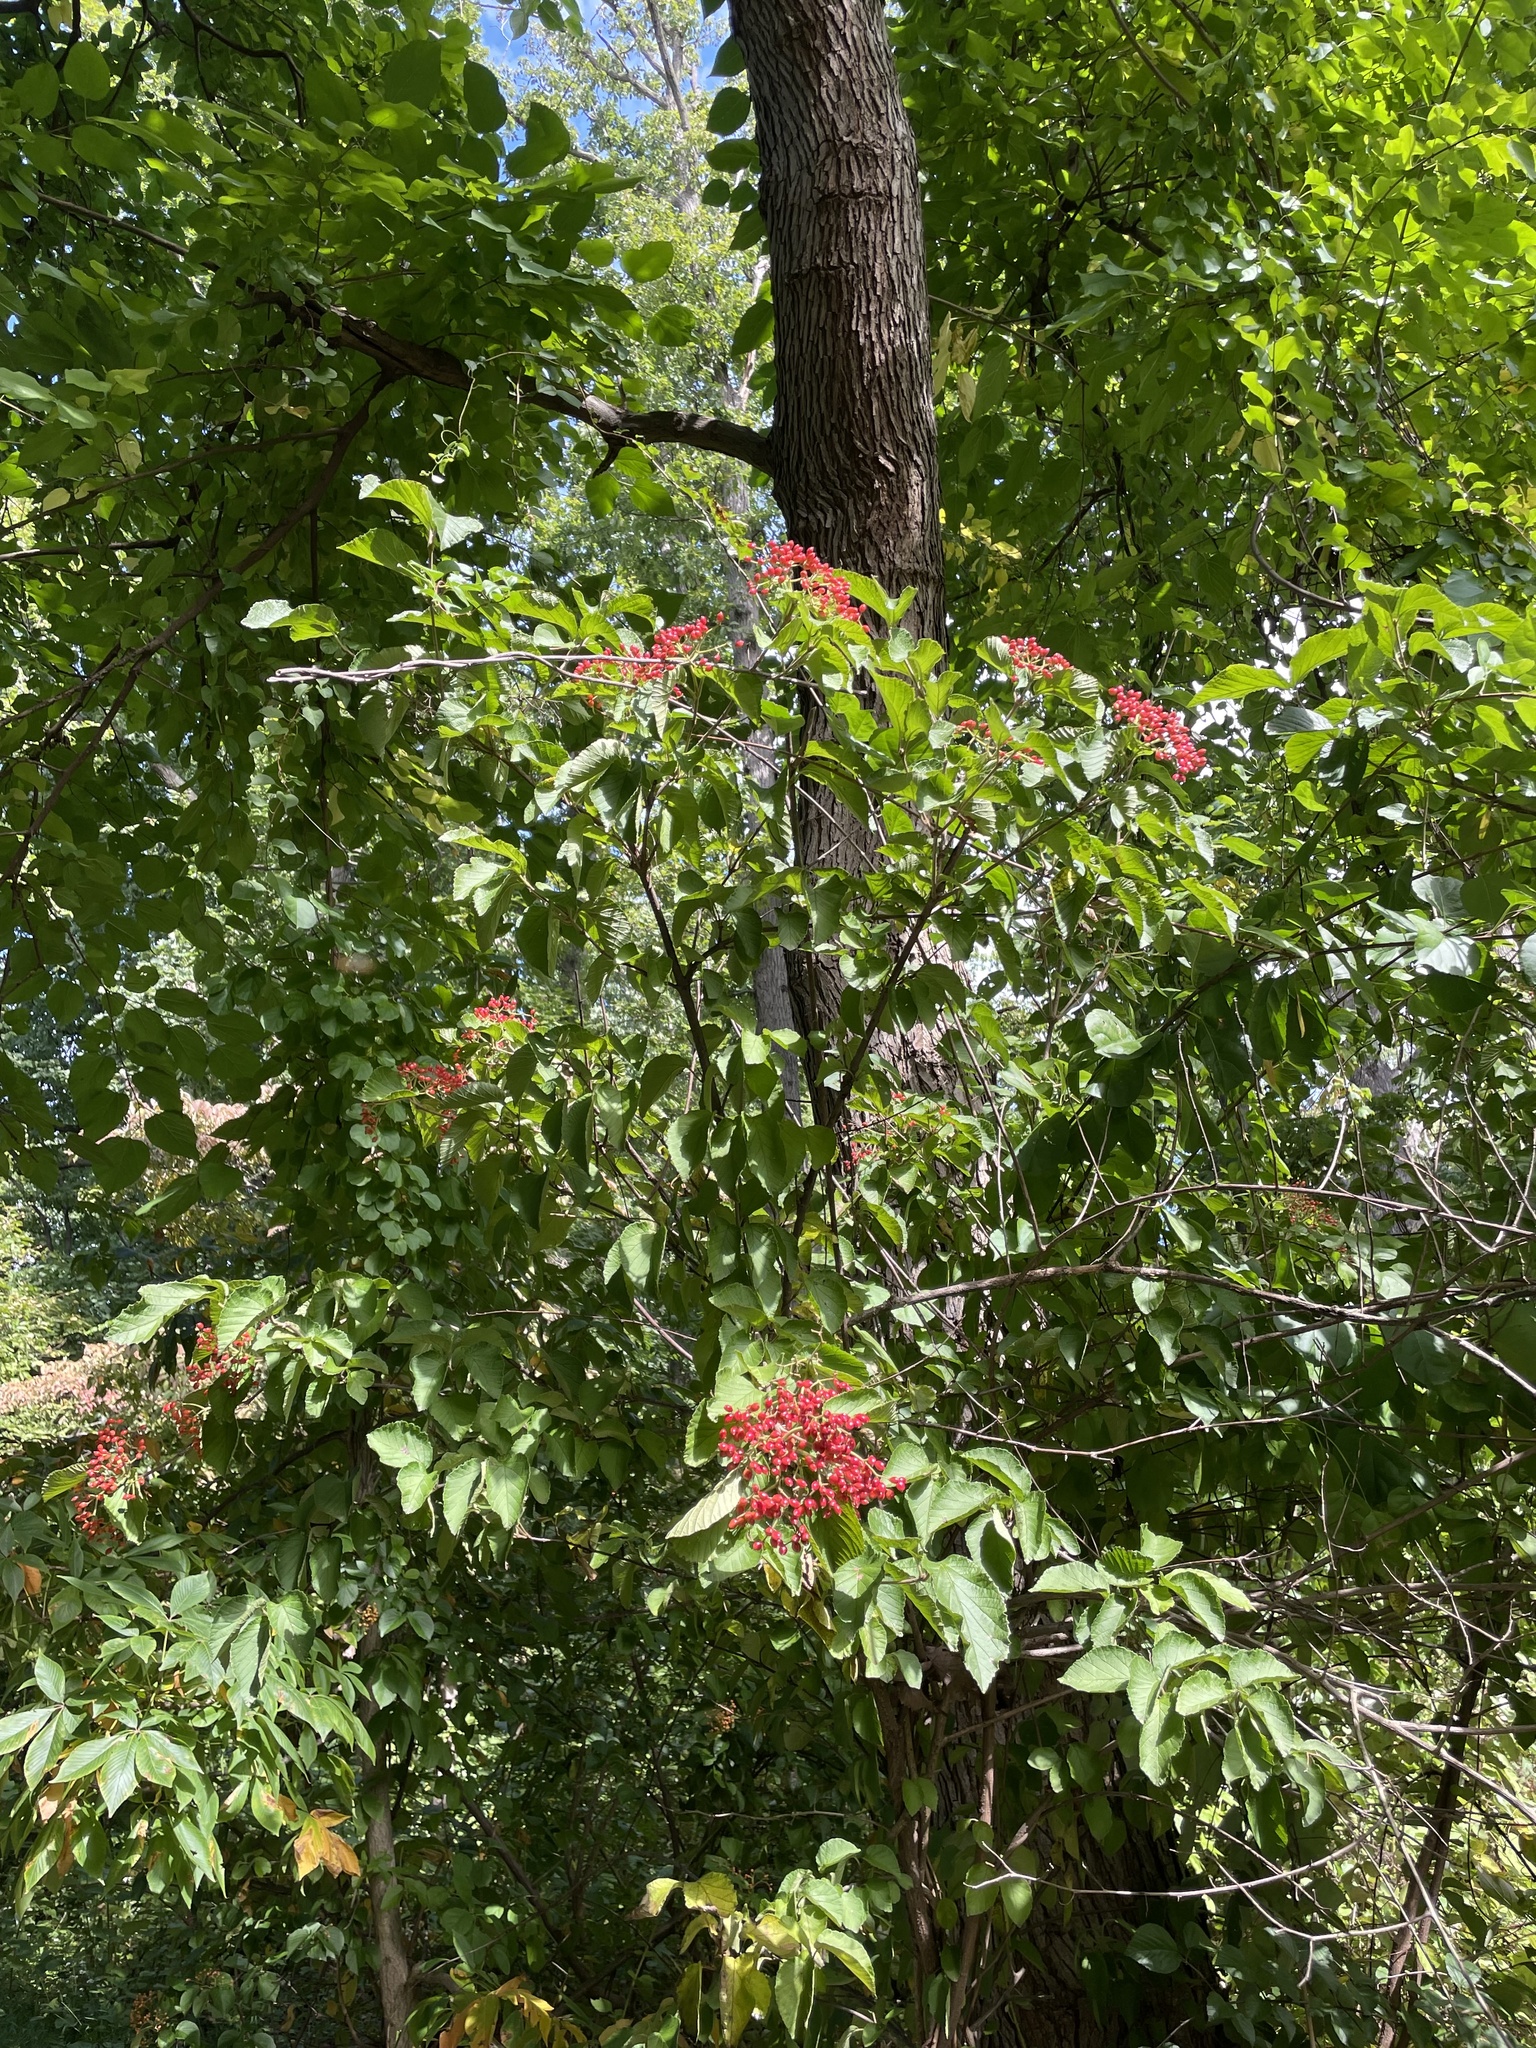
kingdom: Plantae
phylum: Tracheophyta
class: Magnoliopsida
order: Dipsacales
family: Viburnaceae
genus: Viburnum
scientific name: Viburnum dilatatum
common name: Linden arrowwood
